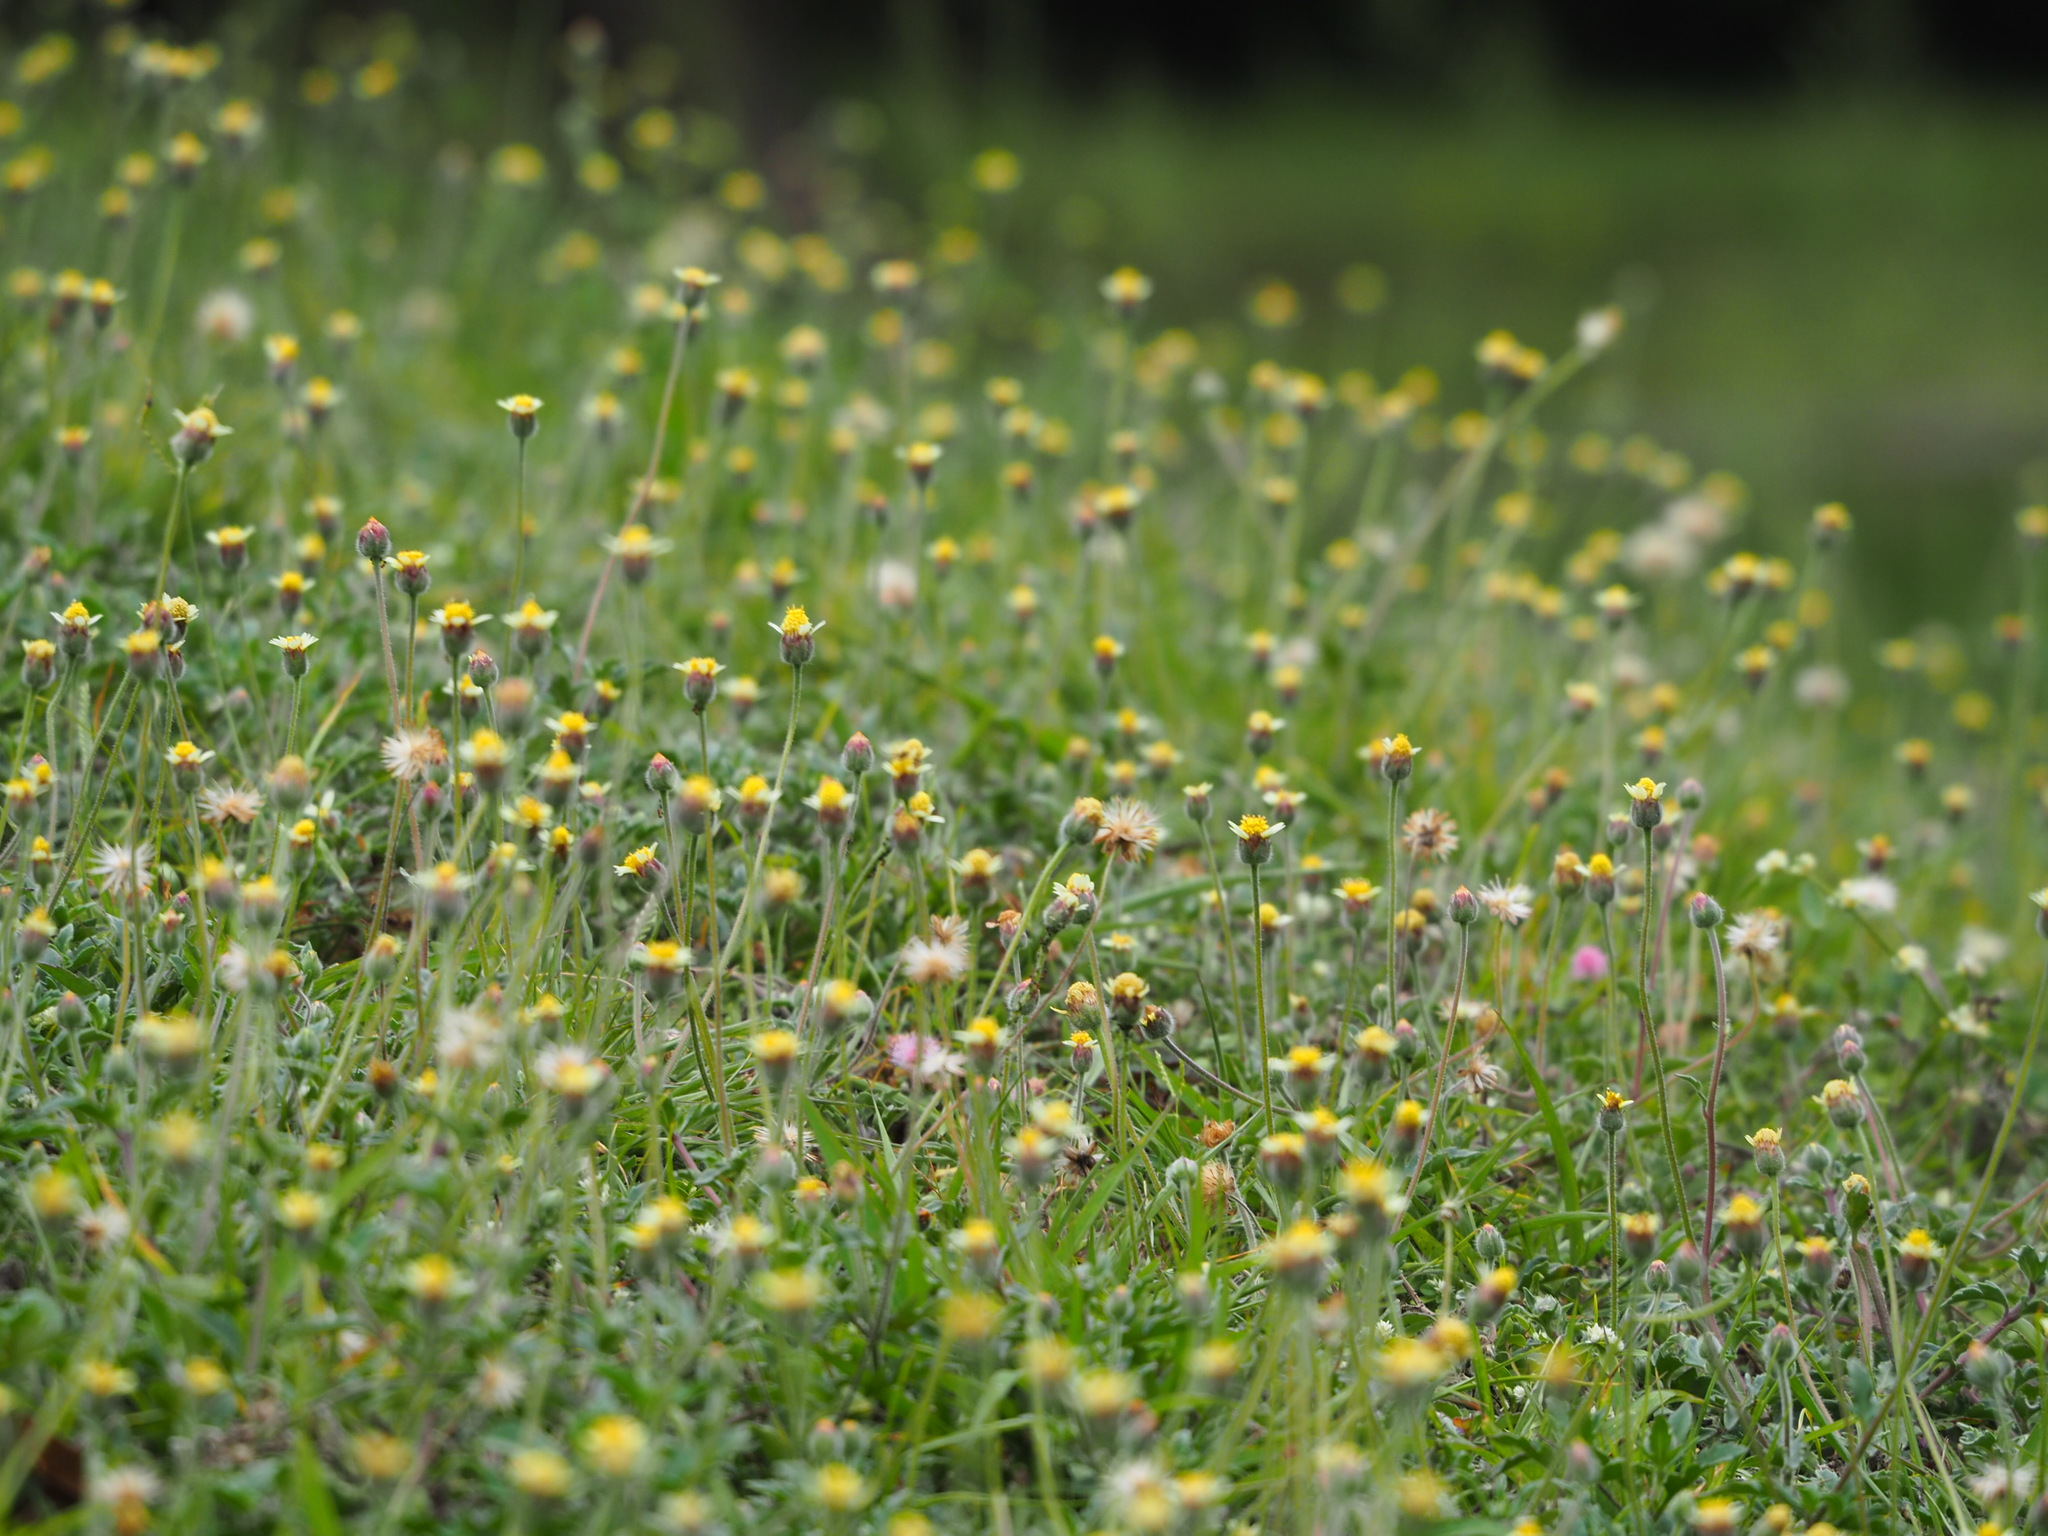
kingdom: Plantae
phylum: Tracheophyta
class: Magnoliopsida
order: Asterales
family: Asteraceae
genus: Tridax
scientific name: Tridax procumbens
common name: Coatbuttons
